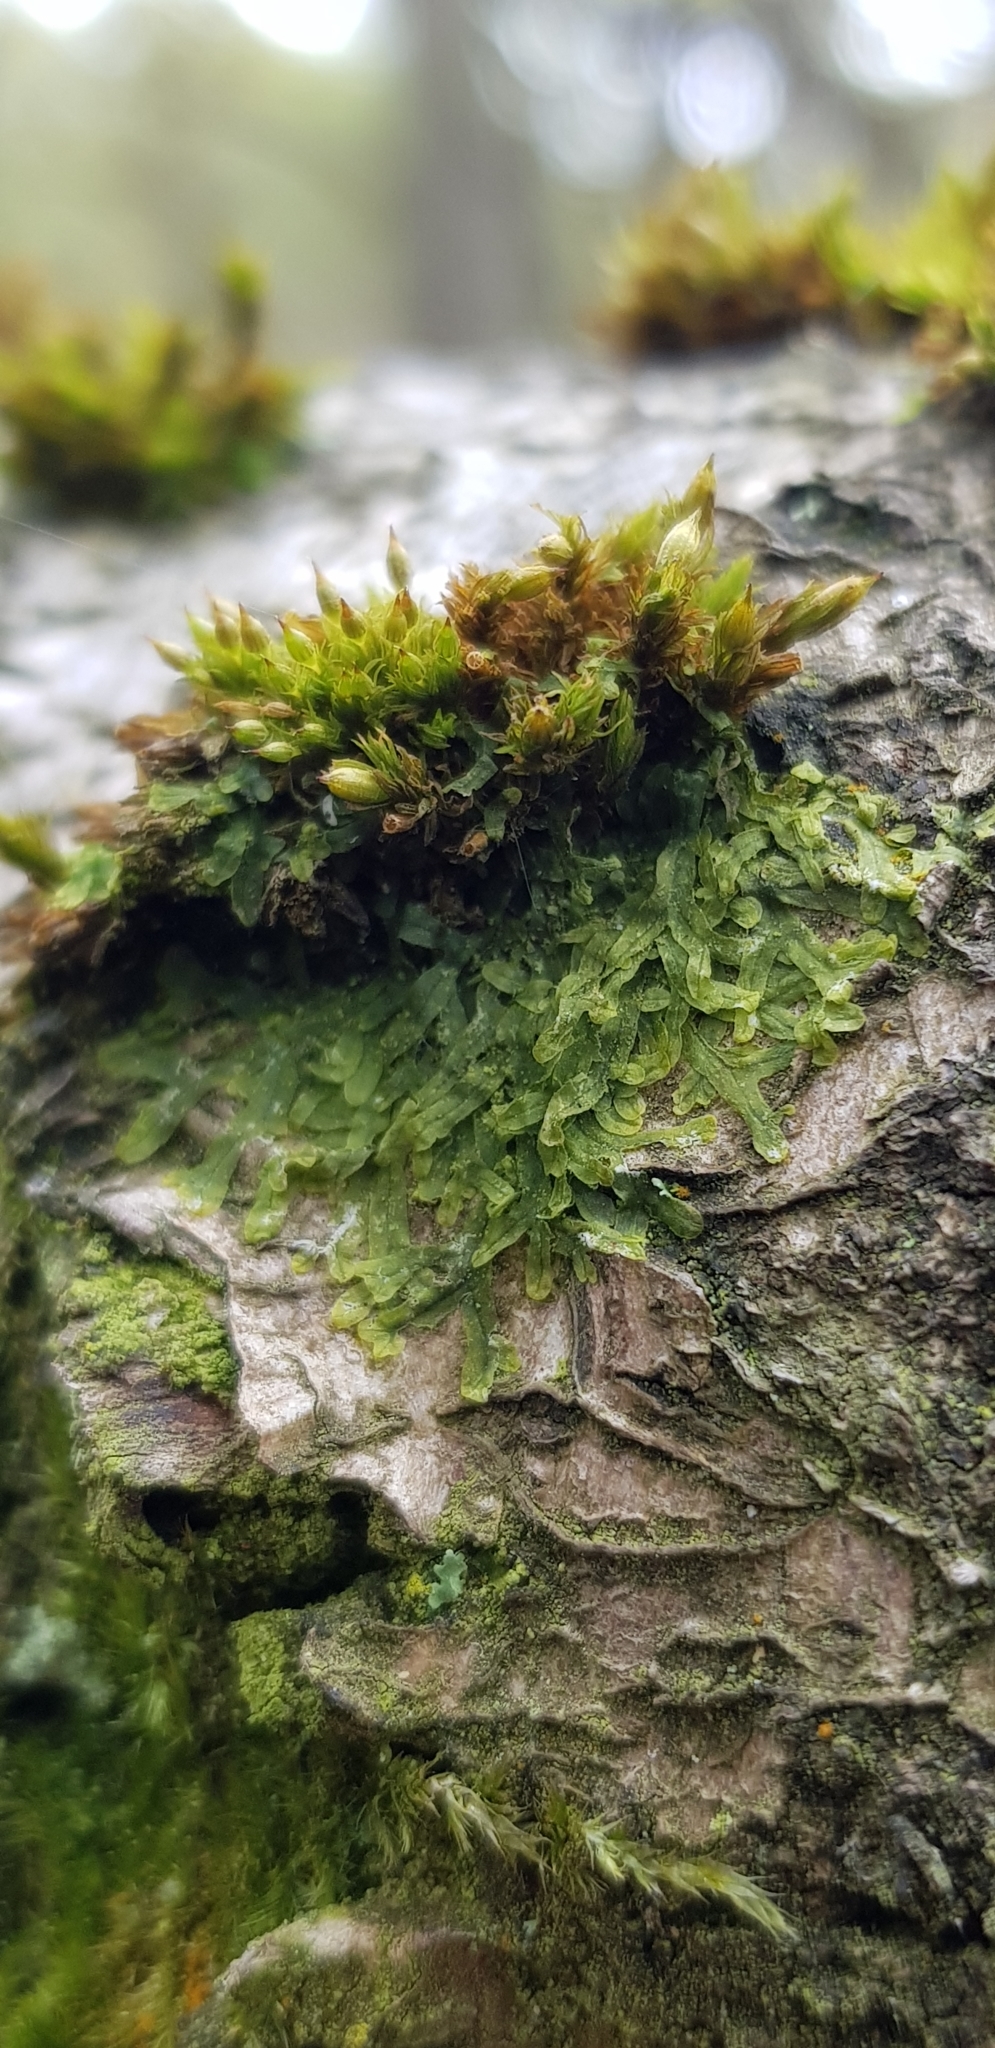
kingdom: Plantae
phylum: Marchantiophyta
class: Jungermanniopsida
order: Metzgeriales
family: Metzgeriaceae
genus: Metzgeria
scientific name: Metzgeria furcata
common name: Forked veilwort
